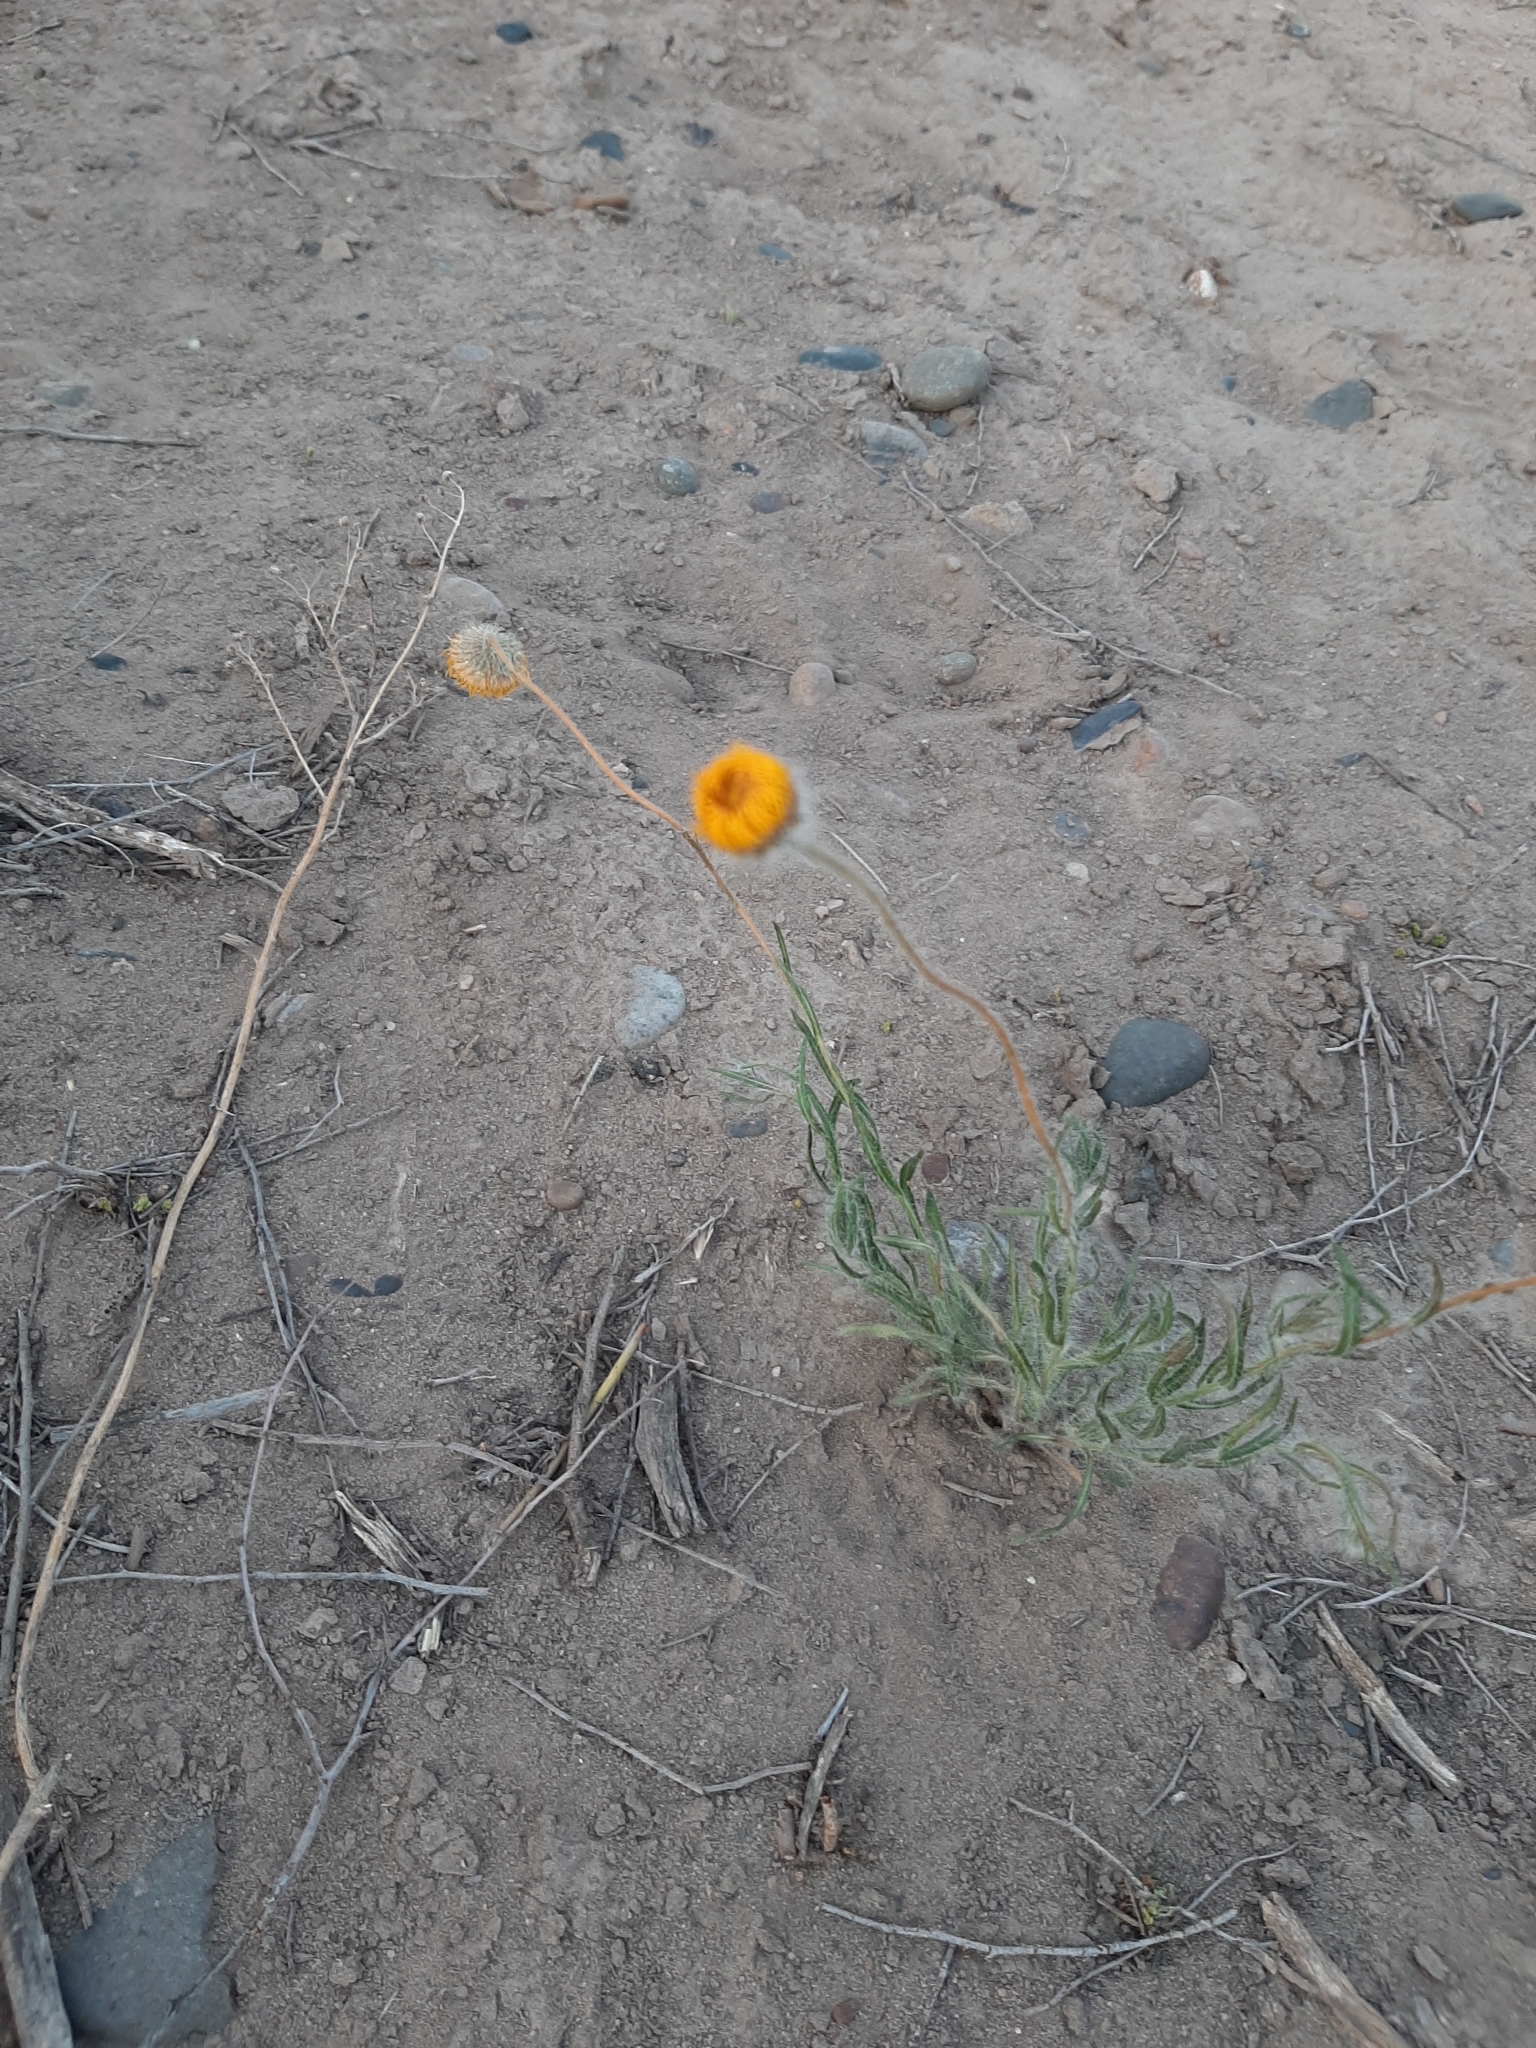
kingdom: Plantae
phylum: Tracheophyta
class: Magnoliopsida
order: Asterales
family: Asteraceae
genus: Hysterionica
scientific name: Hysterionica jasionoides
